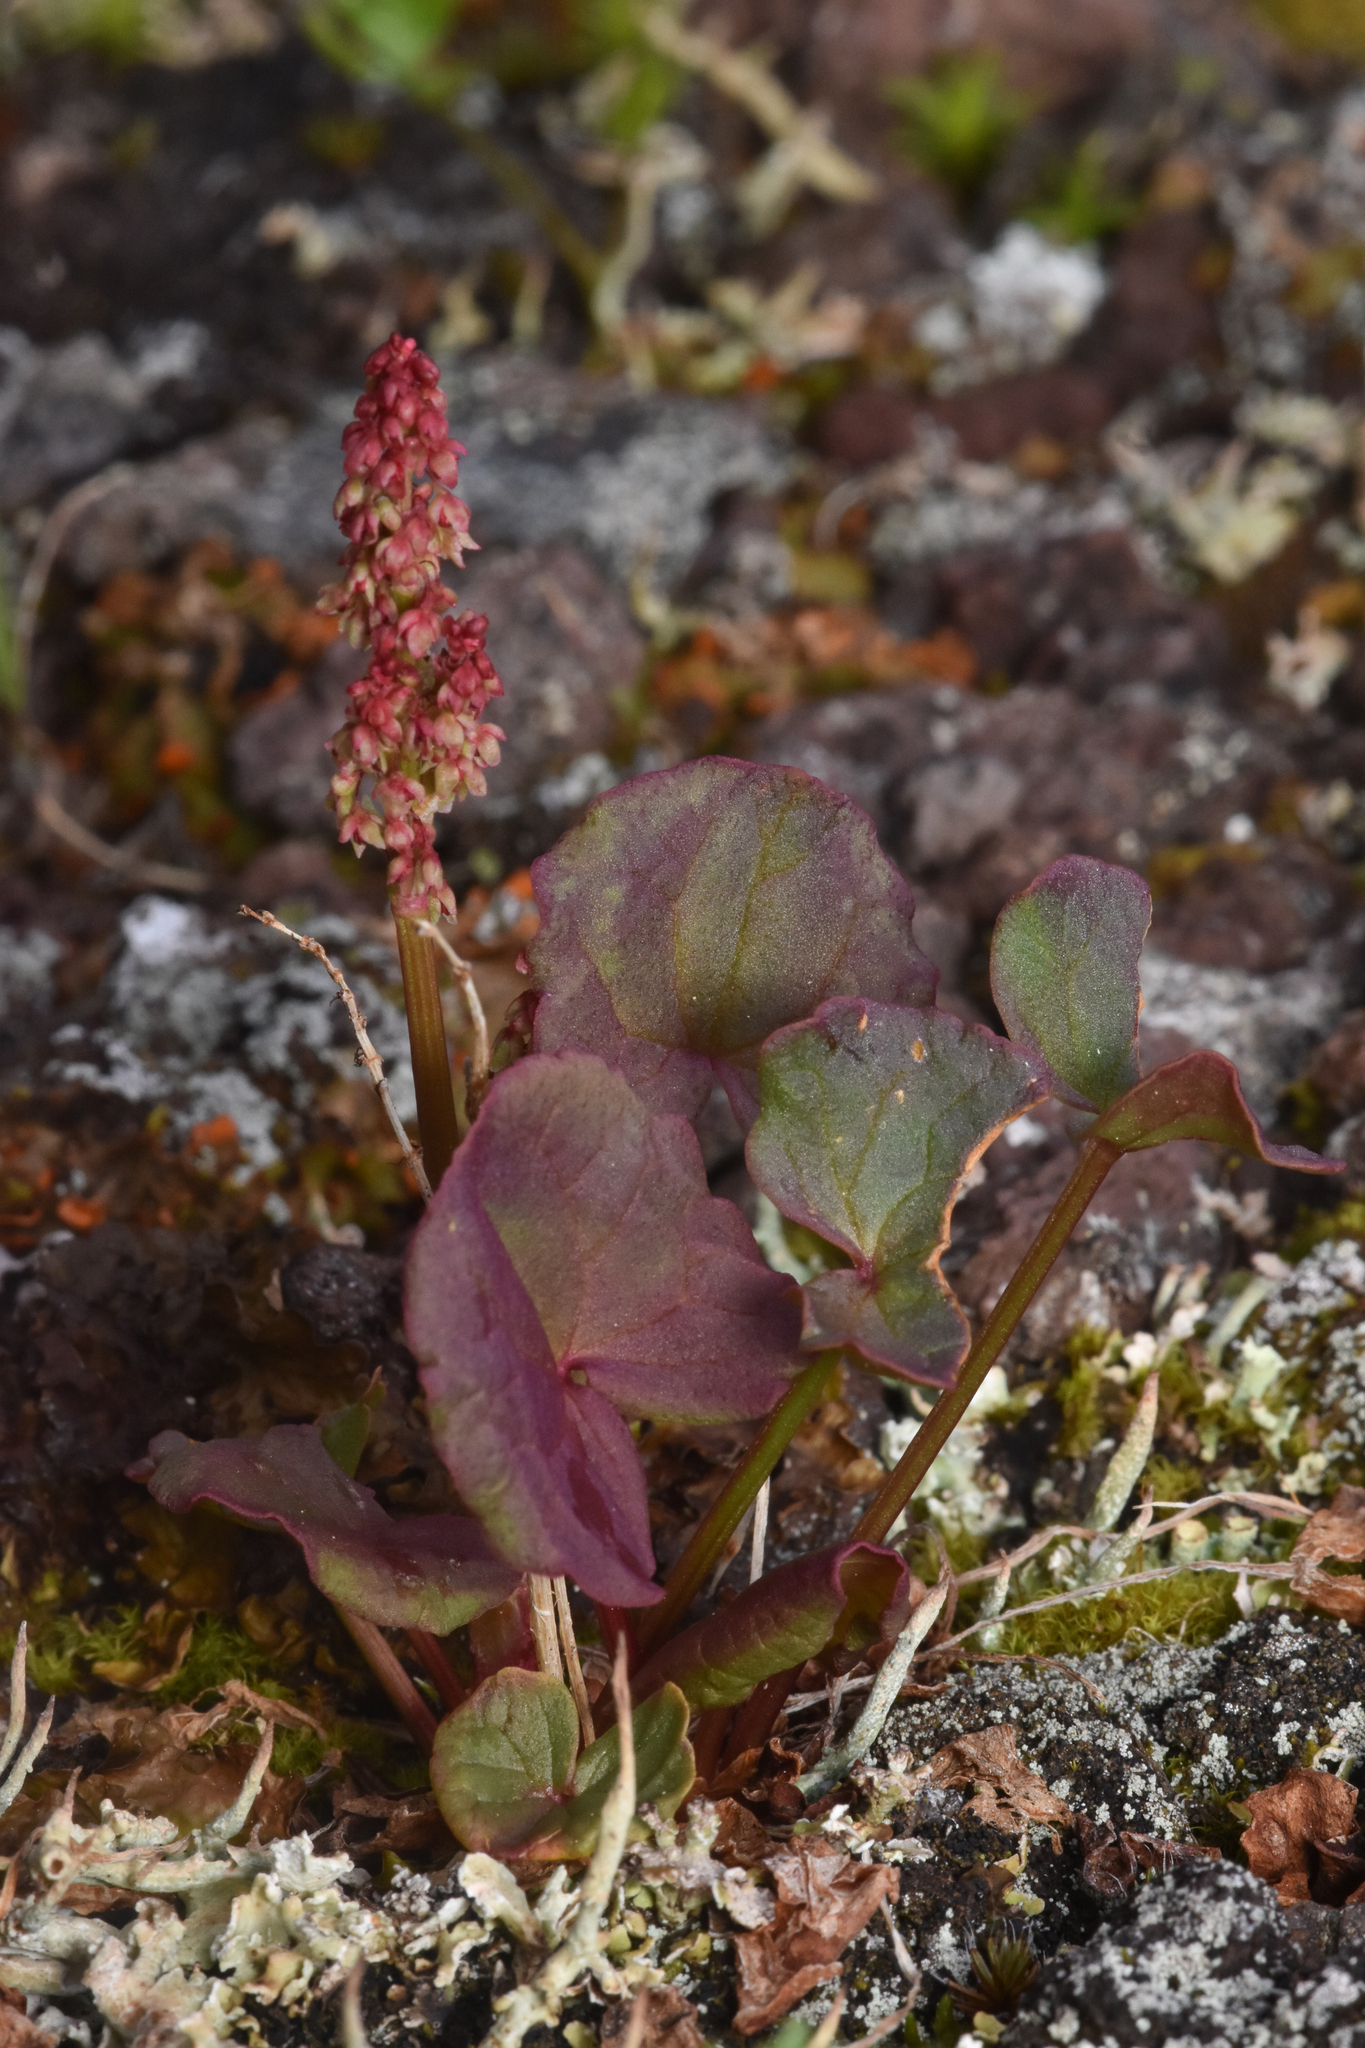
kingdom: Plantae
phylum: Tracheophyta
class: Magnoliopsida
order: Caryophyllales
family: Polygonaceae
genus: Oxyria
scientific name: Oxyria digyna
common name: Alpine mountain-sorrel
